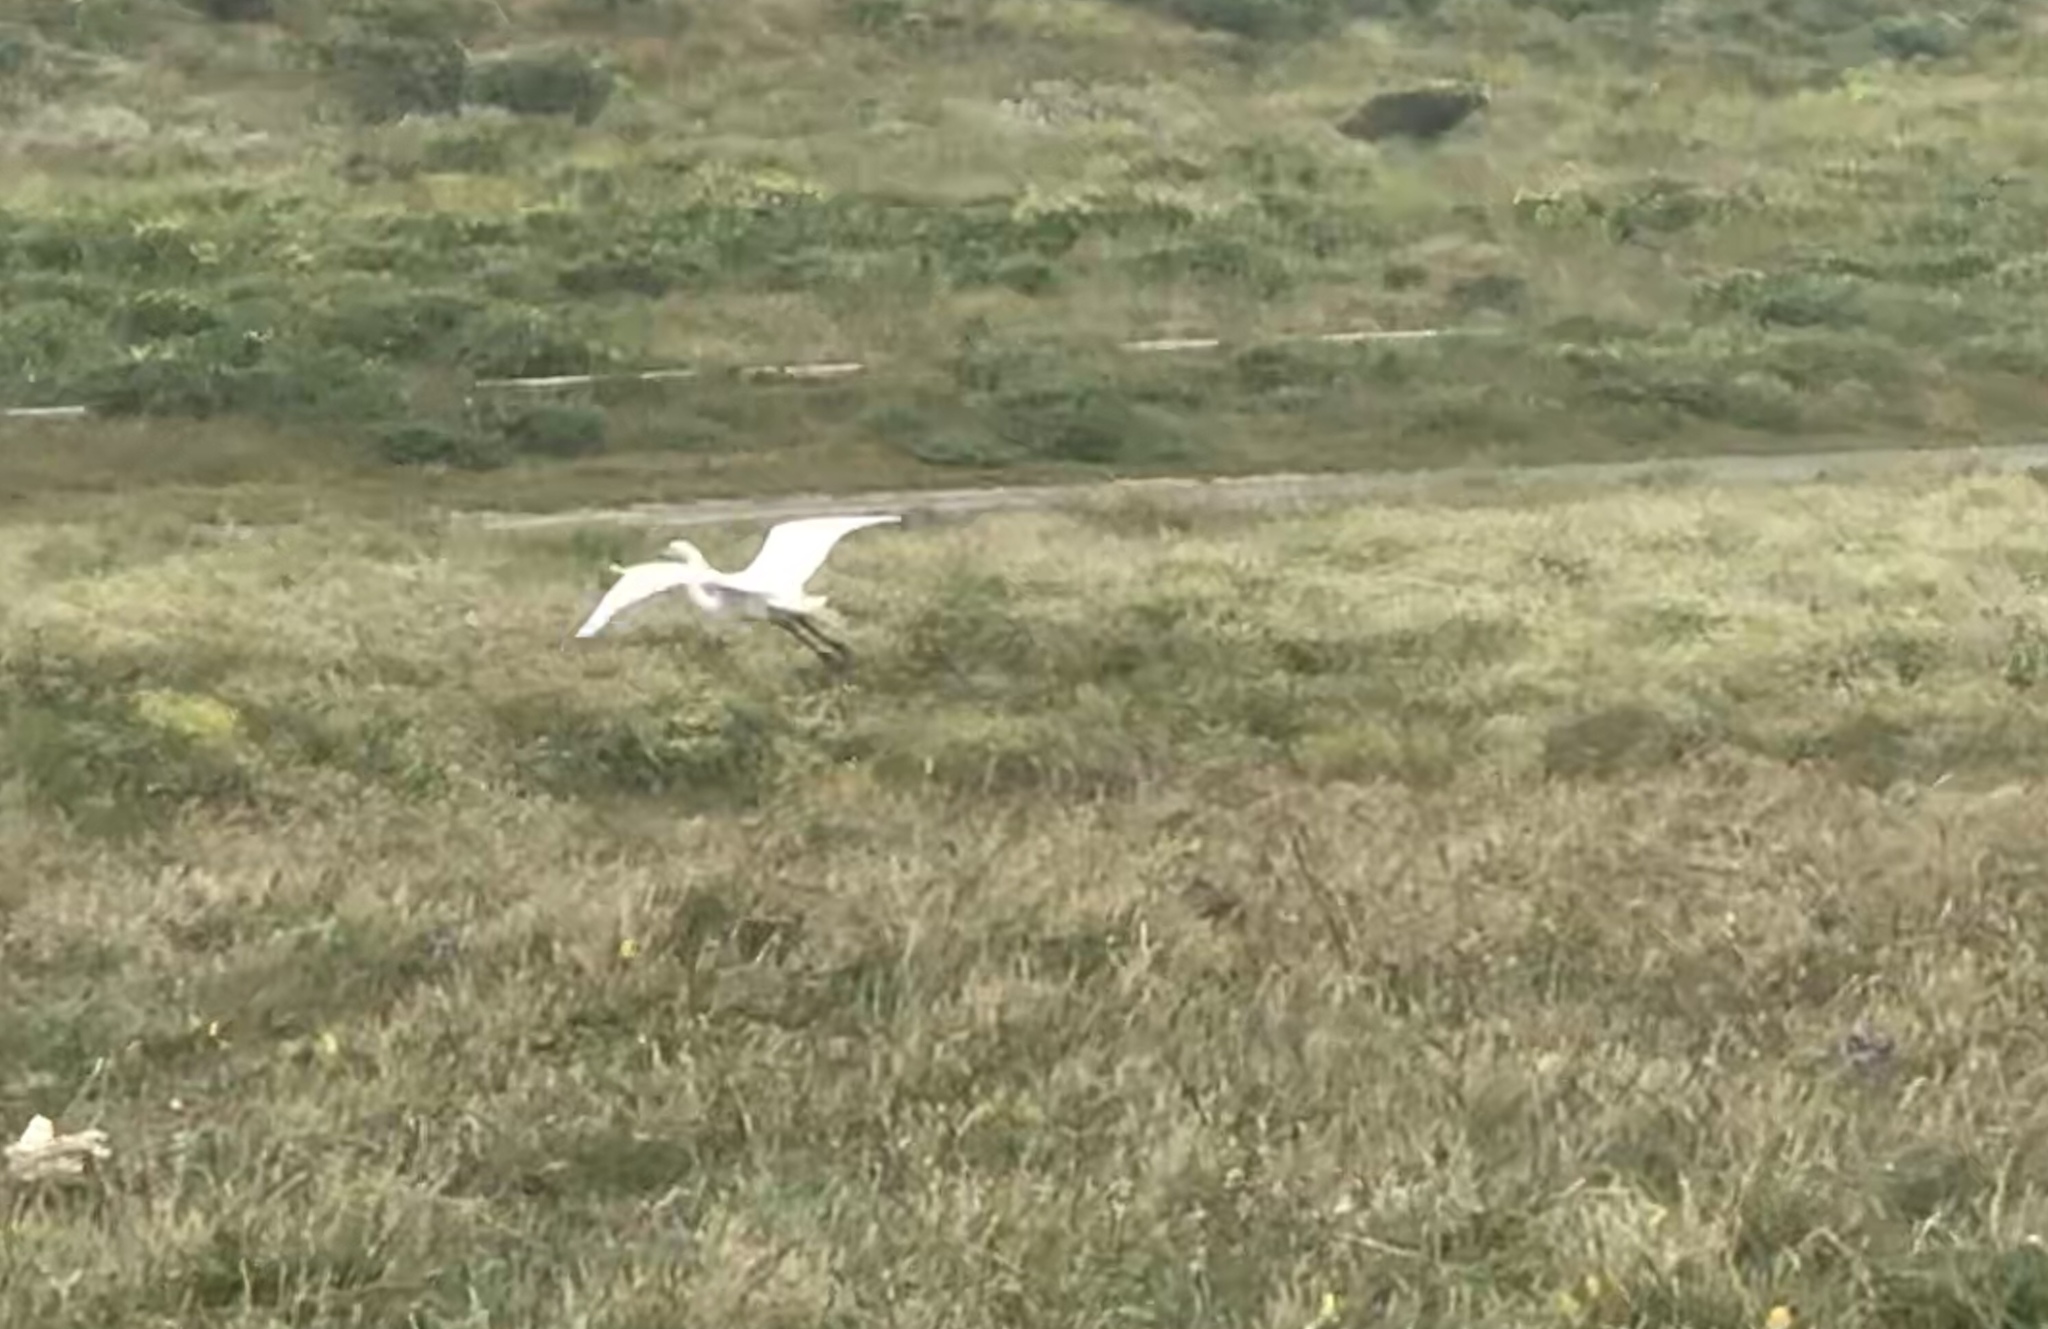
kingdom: Animalia
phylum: Chordata
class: Aves
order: Pelecaniformes
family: Ardeidae
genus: Ardea
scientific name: Ardea alba
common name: Great egret
